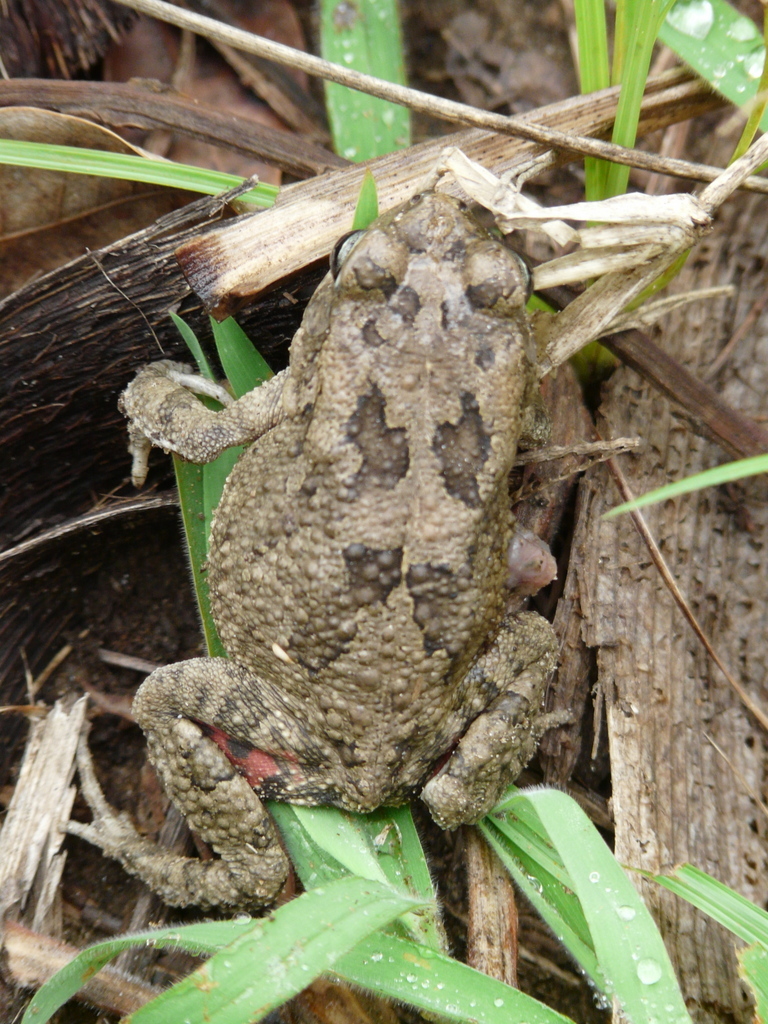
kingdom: Animalia
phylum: Chordata
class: Amphibia
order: Anura
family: Bufonidae
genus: Sclerophrys
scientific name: Sclerophrys gutturalis
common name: African common toad
